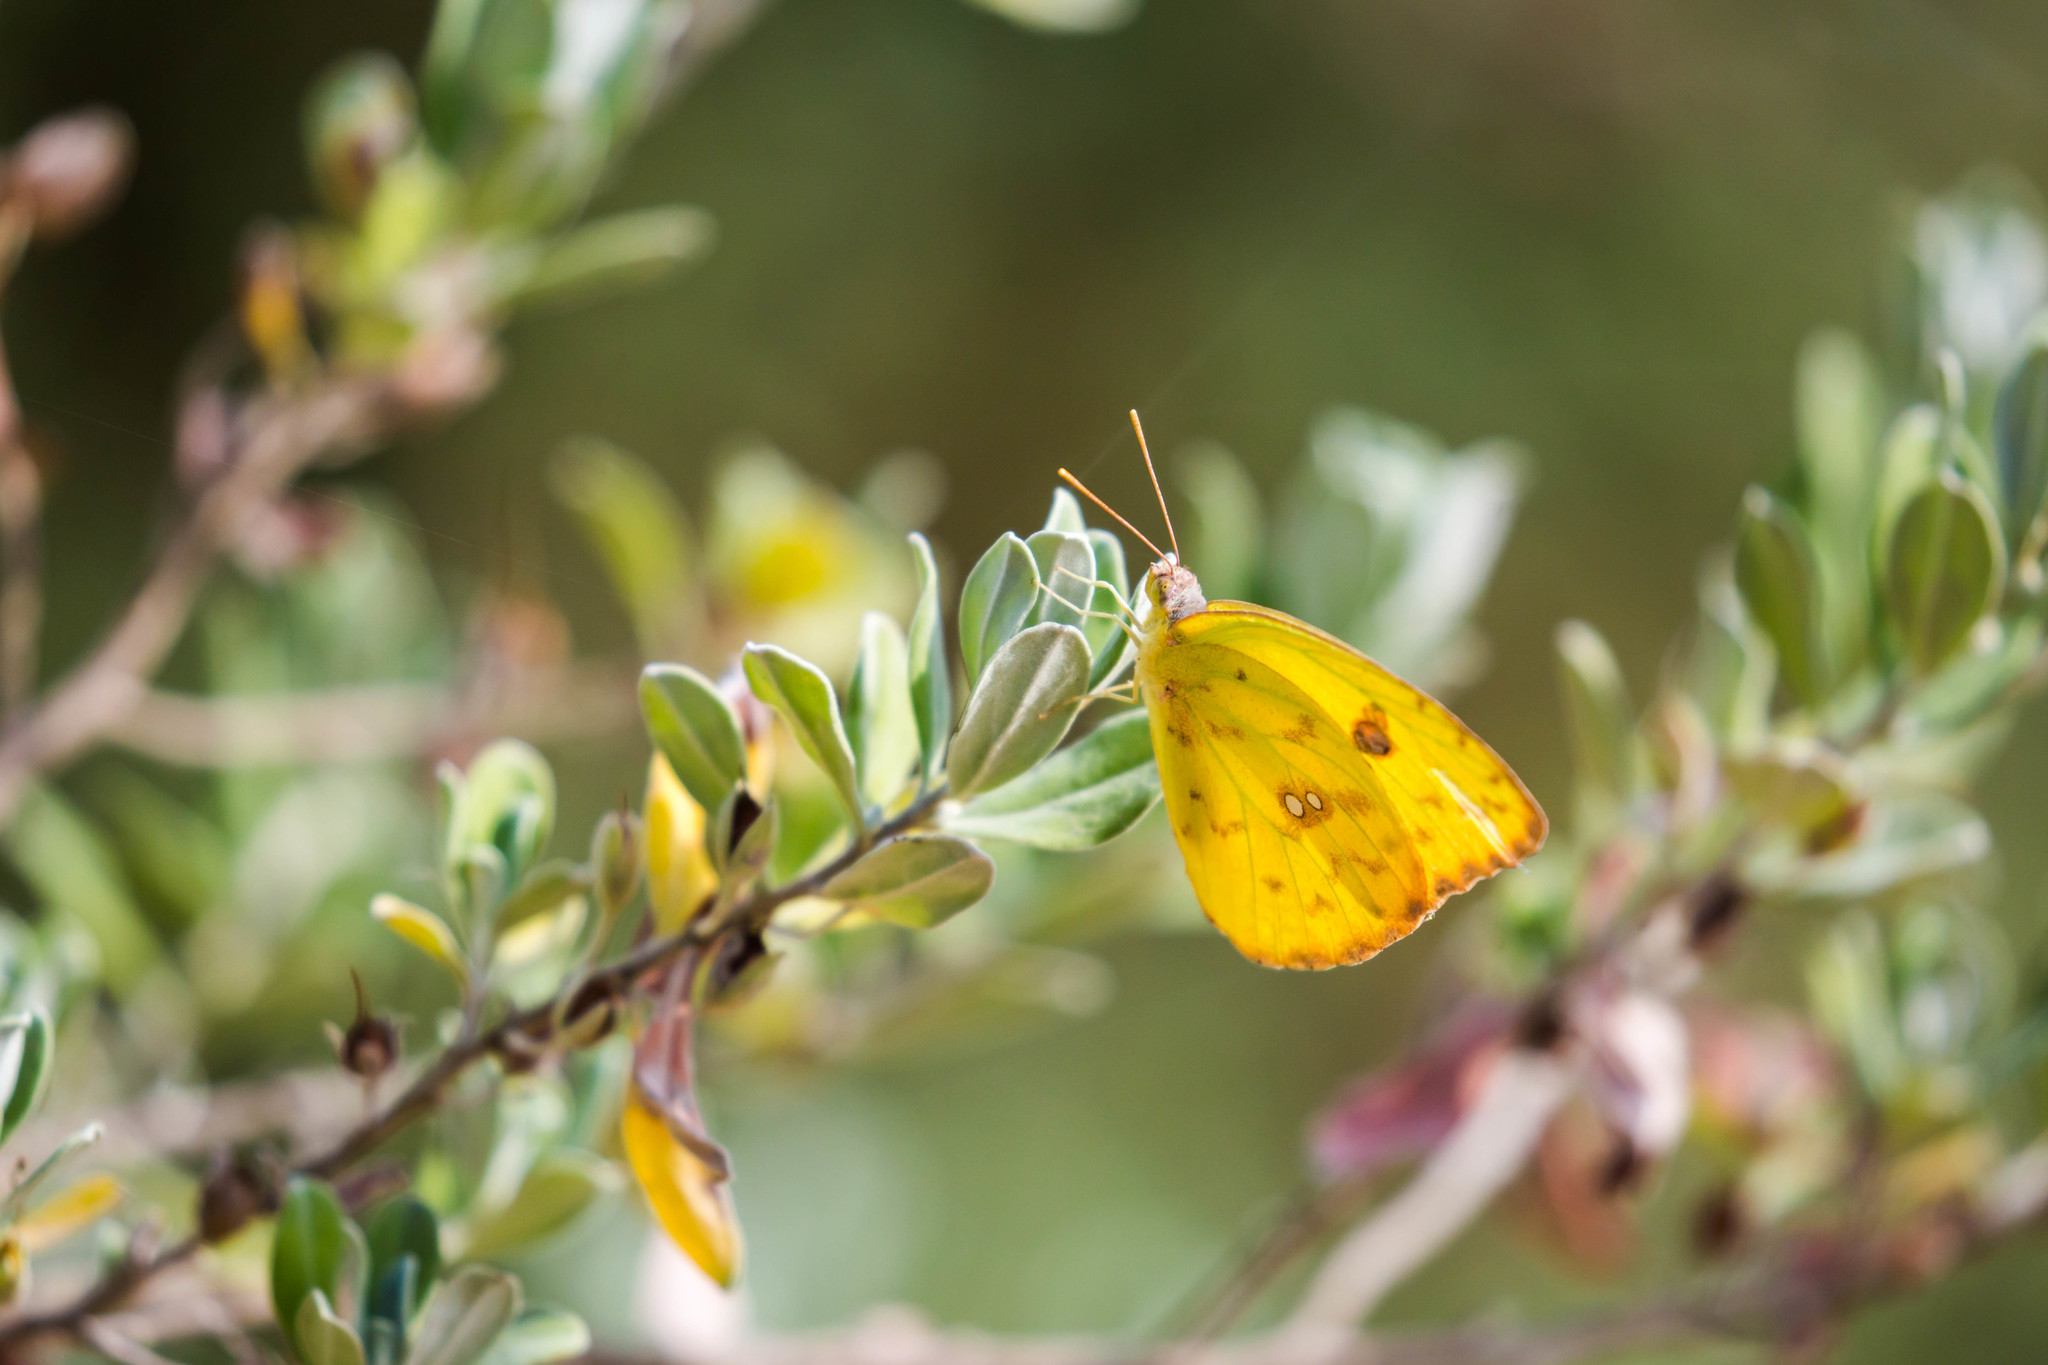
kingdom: Animalia
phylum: Arthropoda
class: Insecta
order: Lepidoptera
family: Pieridae
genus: Phoebis
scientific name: Phoebis sennae
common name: Cloudless sulphur
